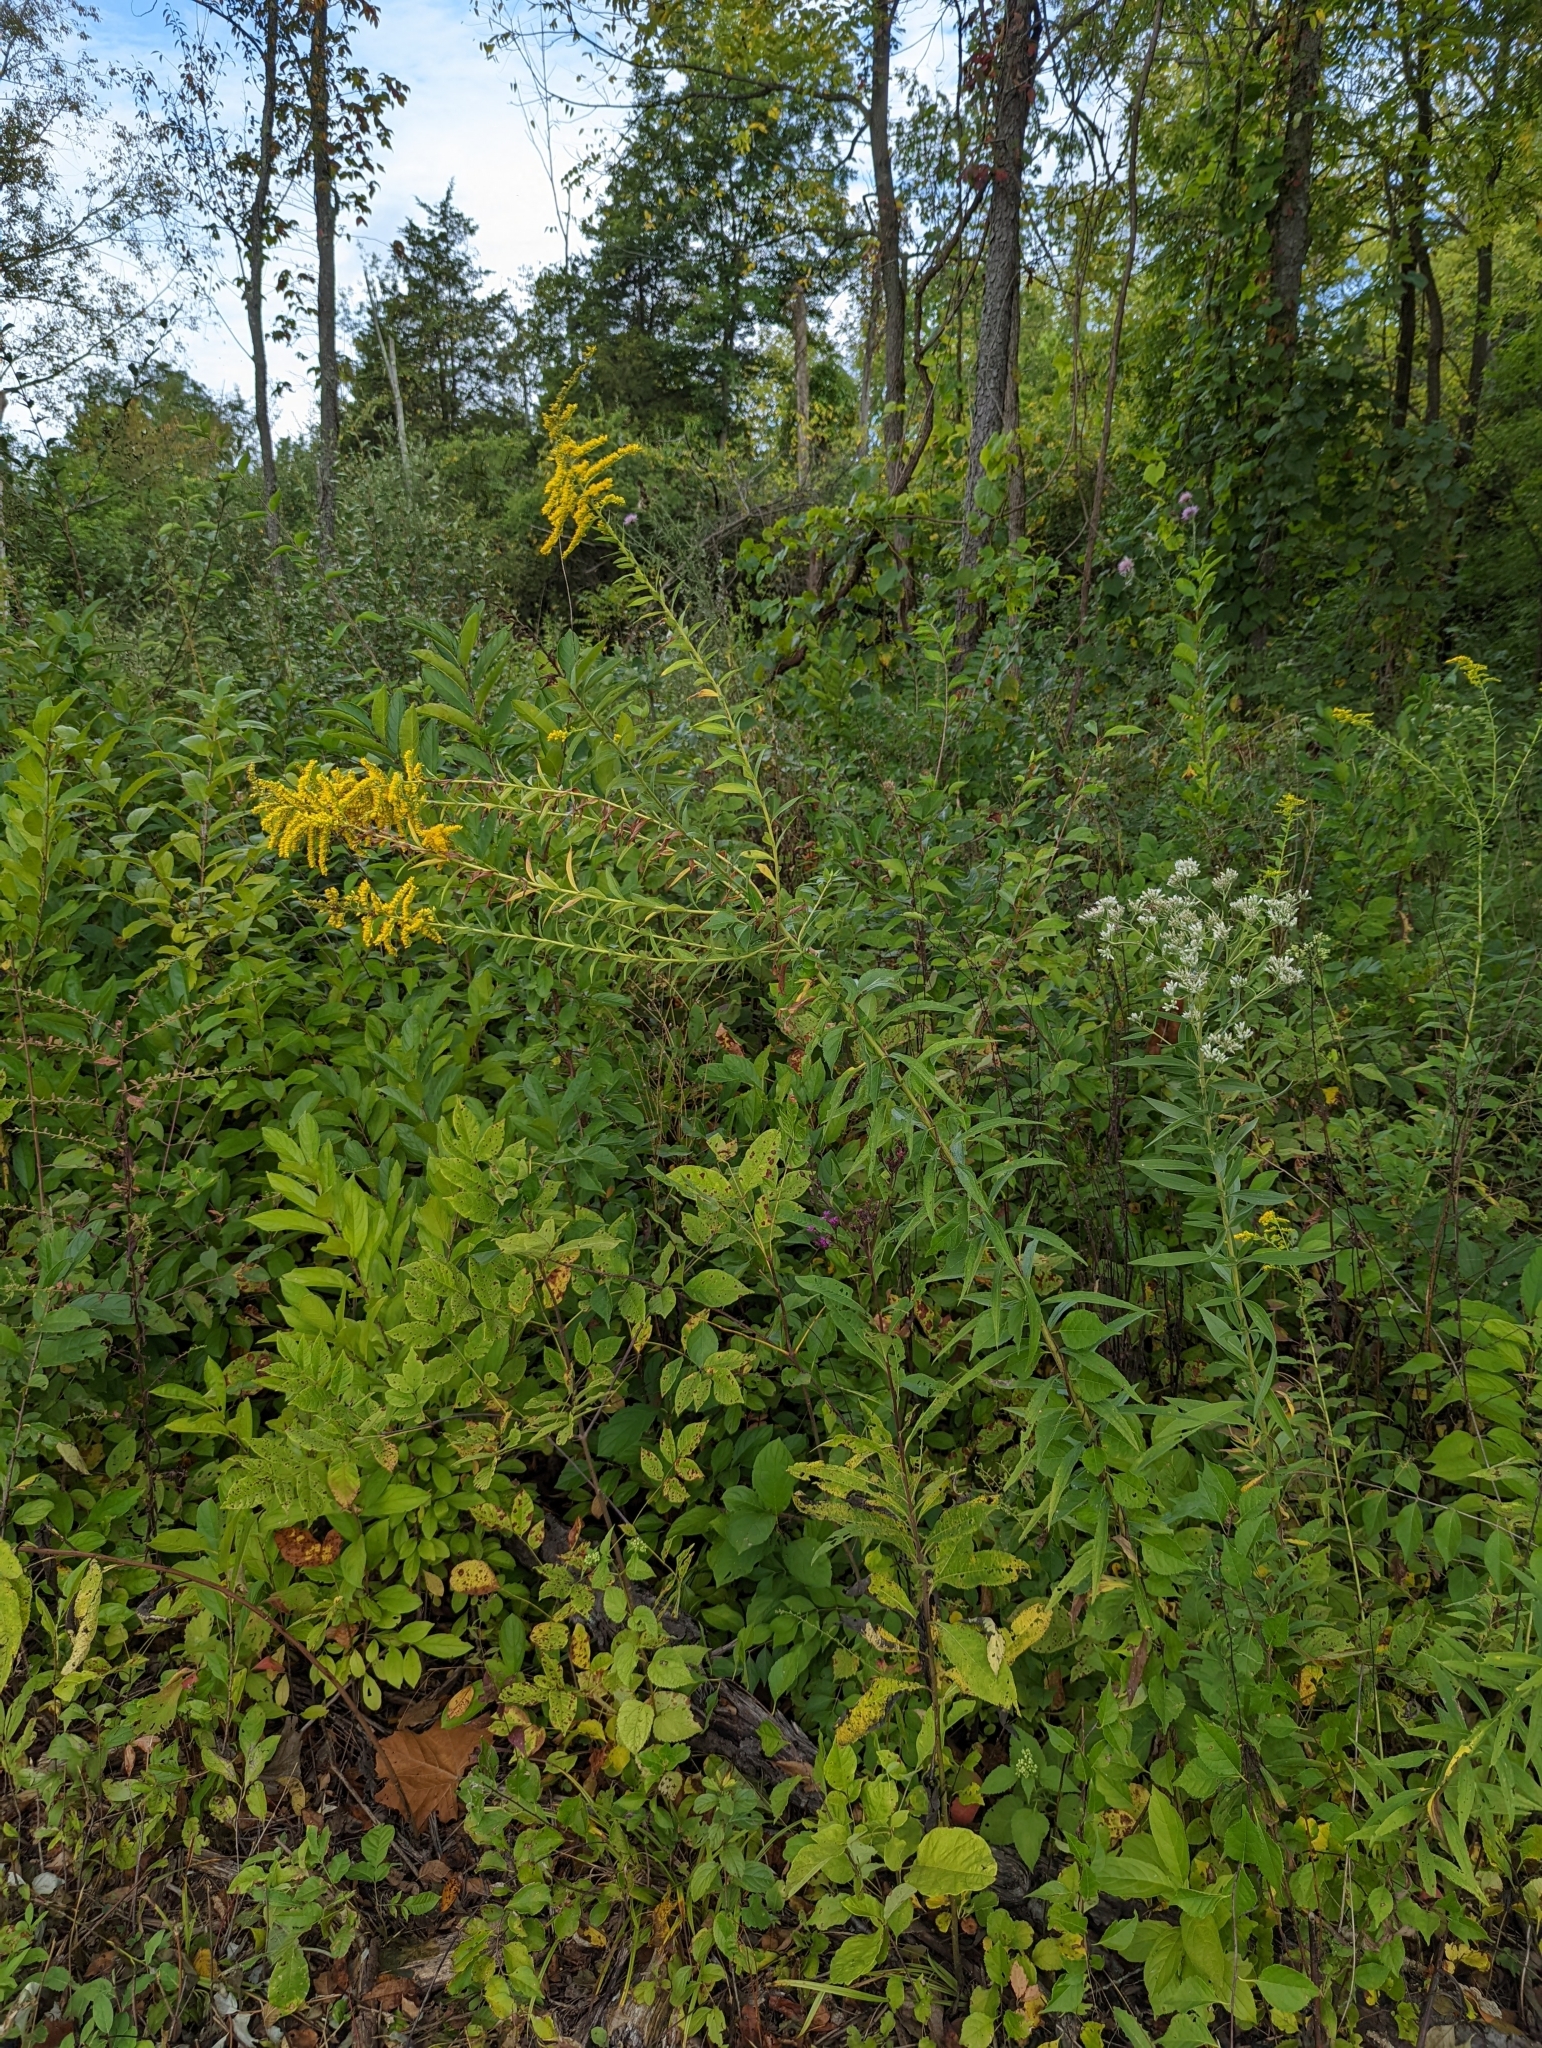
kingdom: Plantae
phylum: Tracheophyta
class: Magnoliopsida
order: Asterales
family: Asteraceae
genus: Solidago
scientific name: Solidago altissima
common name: Late goldenrod
